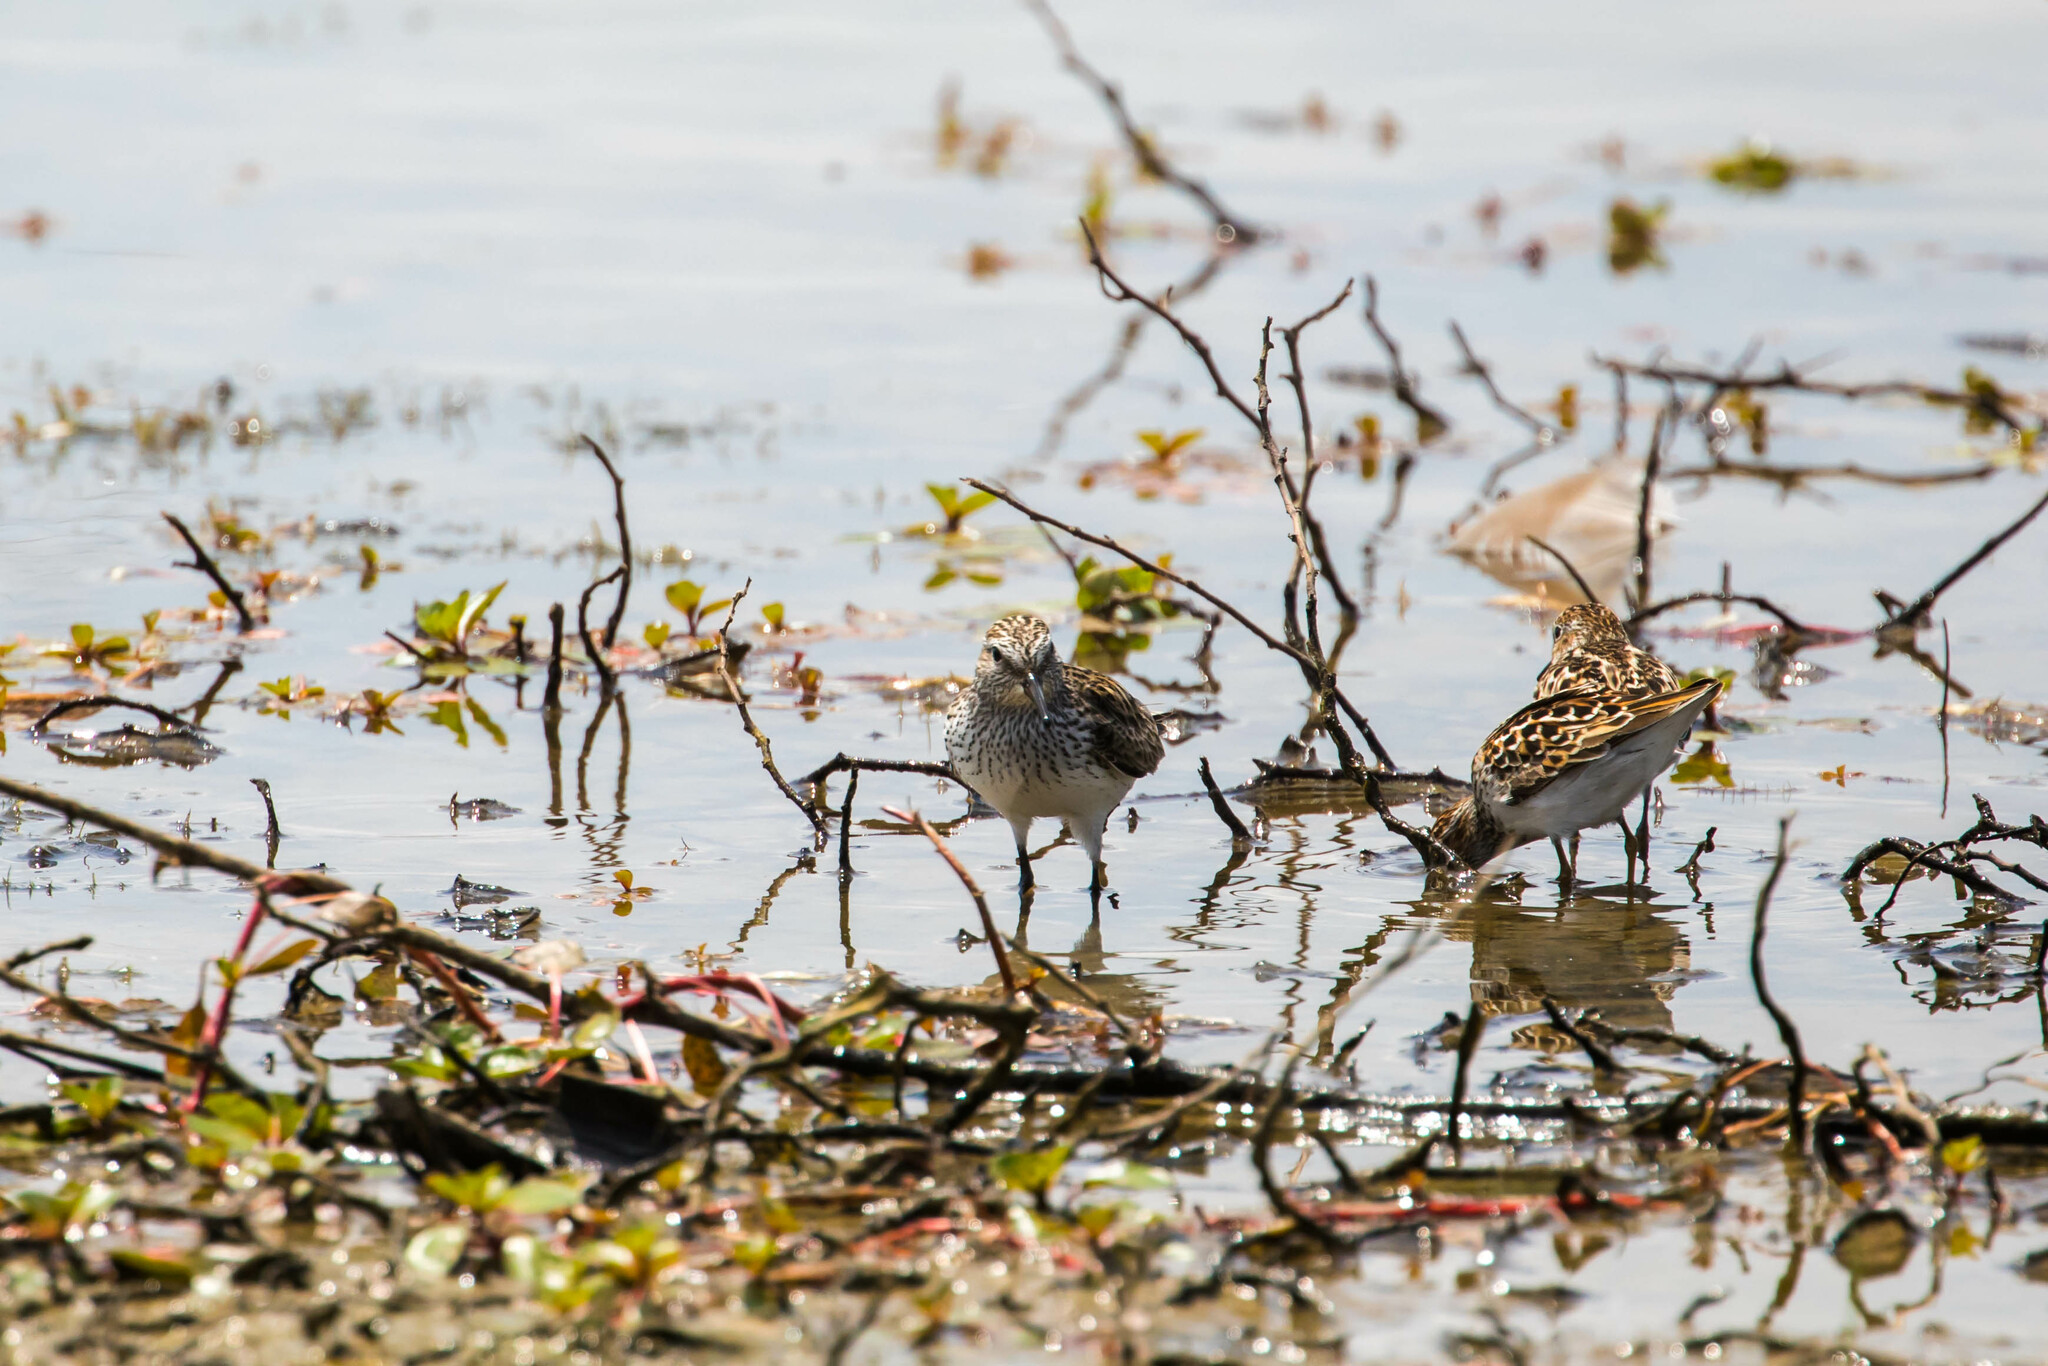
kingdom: Animalia
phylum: Chordata
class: Aves
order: Charadriiformes
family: Scolopacidae
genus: Calidris
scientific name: Calidris fuscicollis
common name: White-rumped sandpiper
